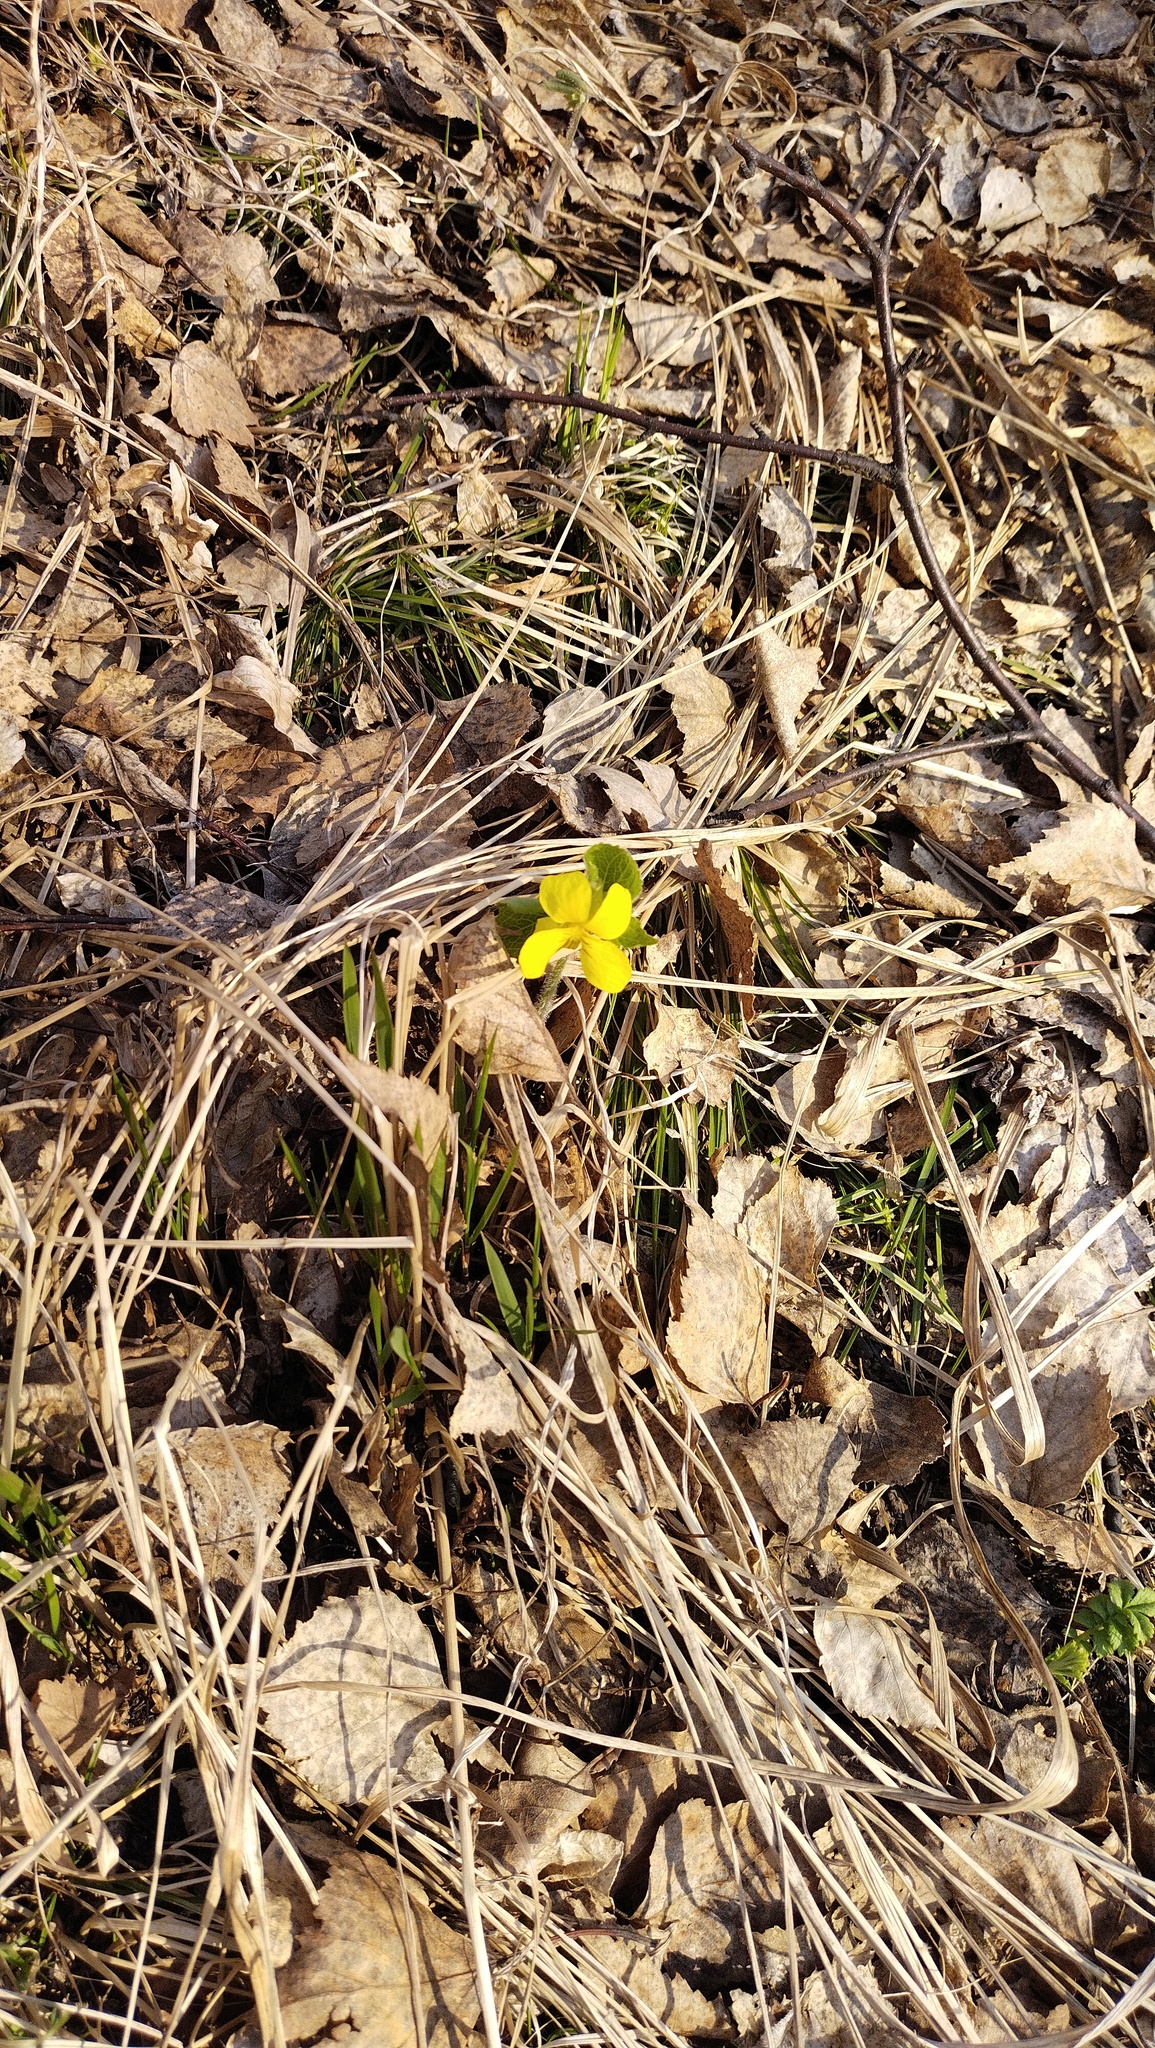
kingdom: Plantae
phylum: Tracheophyta
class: Magnoliopsida
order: Malpighiales
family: Violaceae
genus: Viola
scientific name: Viola uniflora
